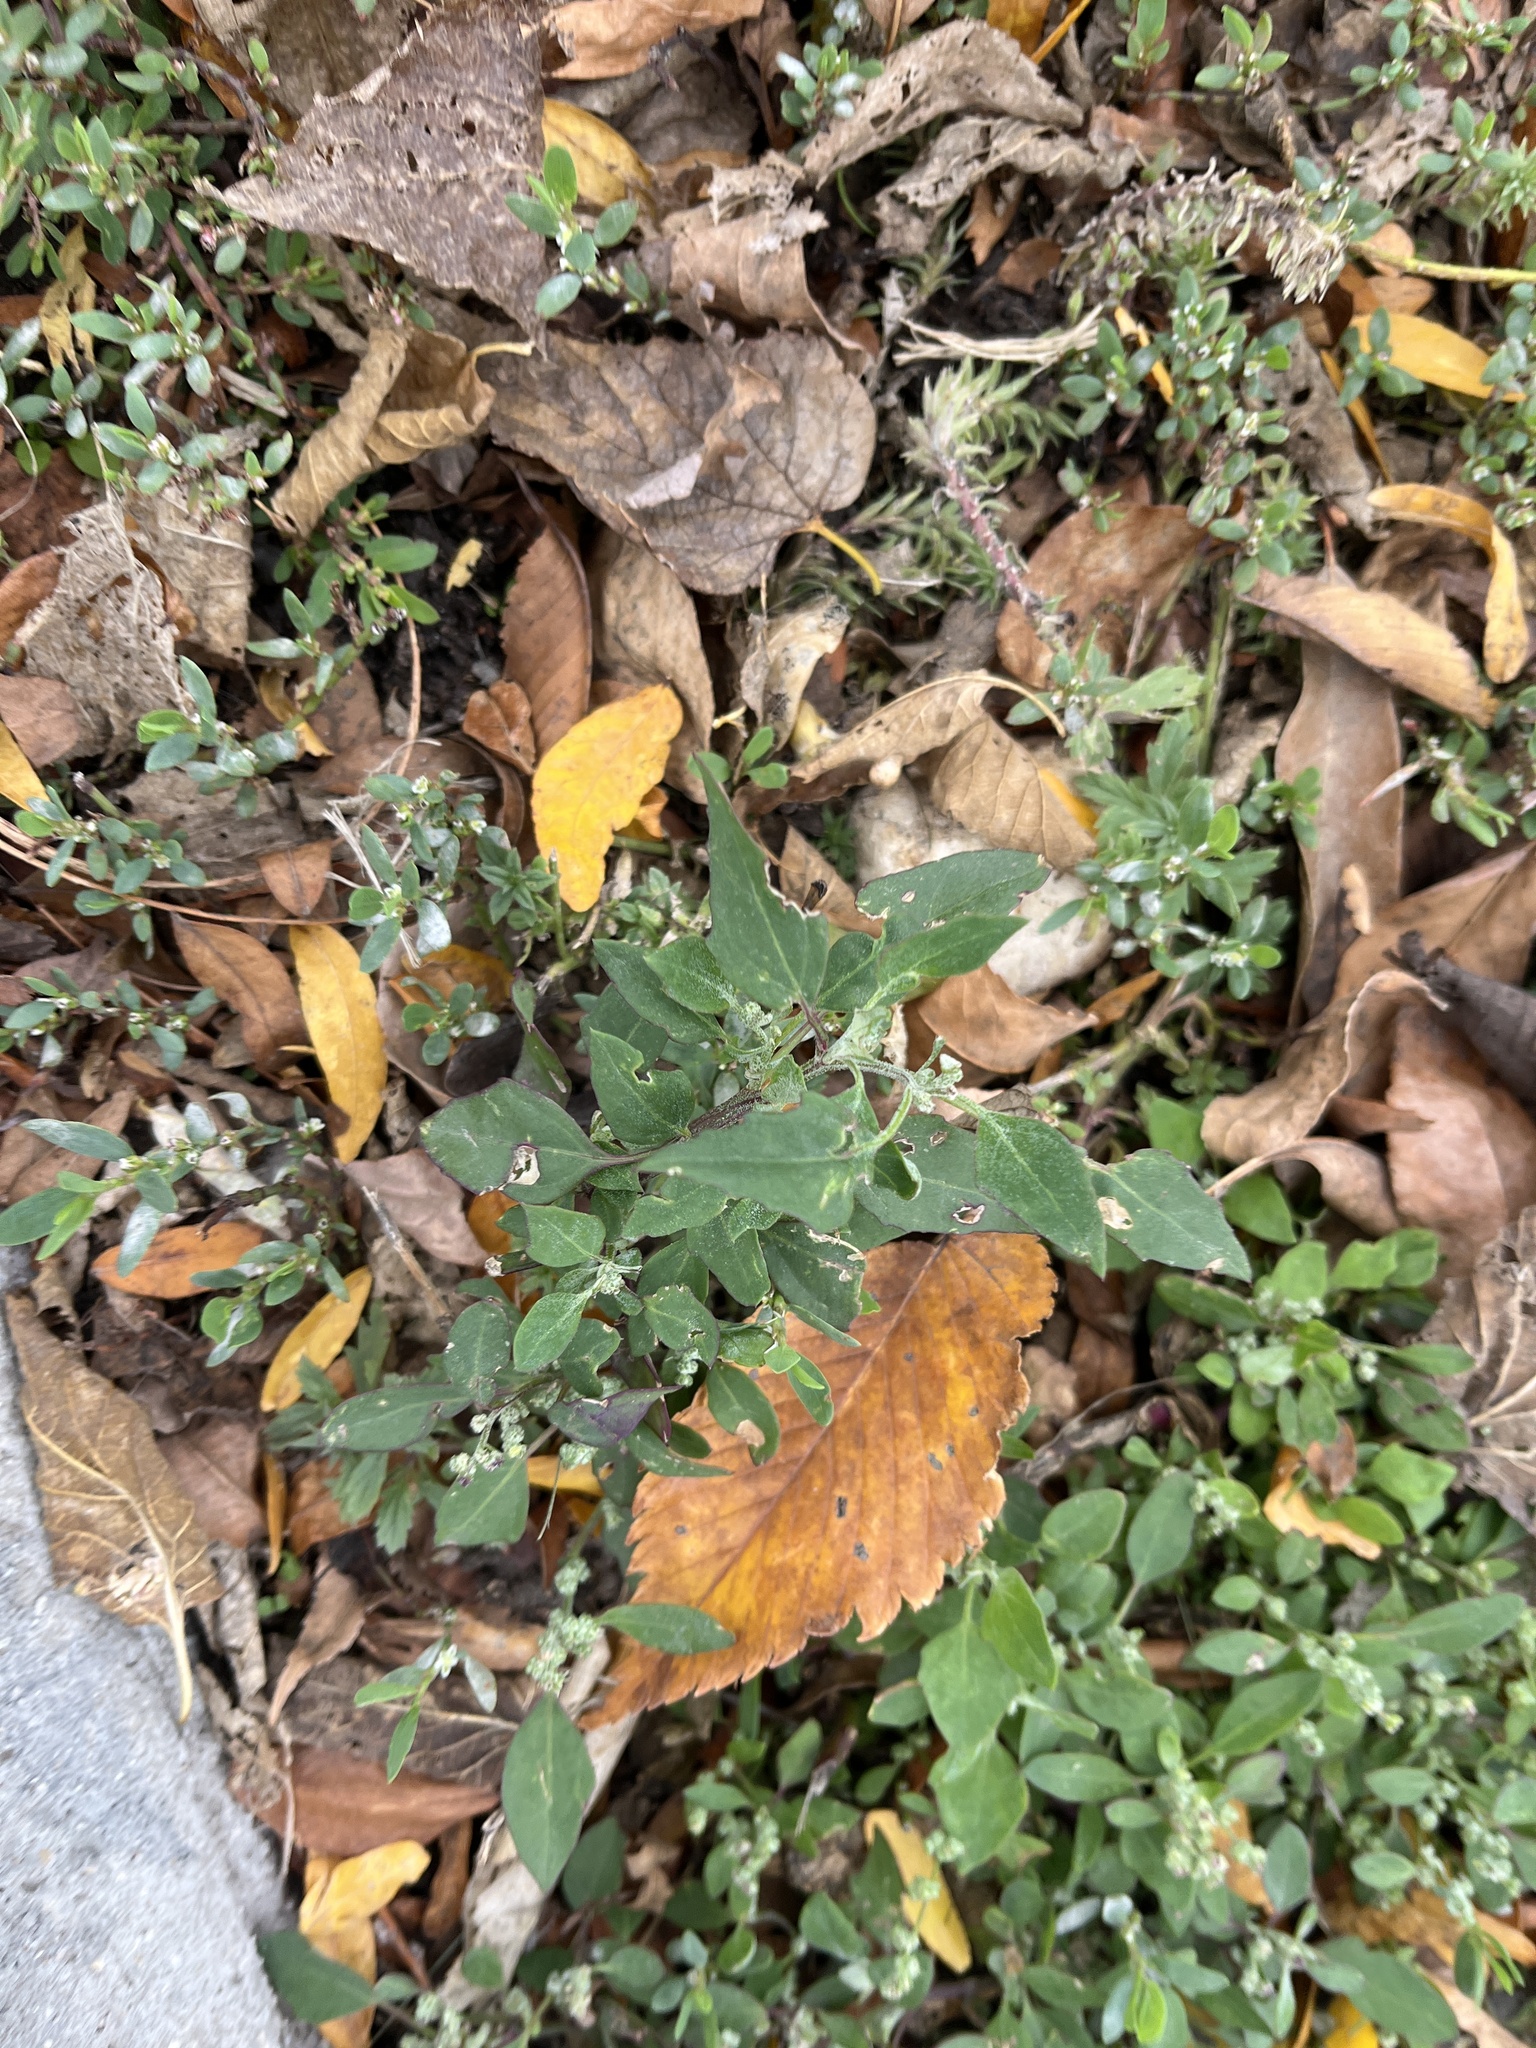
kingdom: Plantae
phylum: Tracheophyta
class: Magnoliopsida
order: Caryophyllales
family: Amaranthaceae
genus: Chenopodium
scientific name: Chenopodium album
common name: Fat-hen
